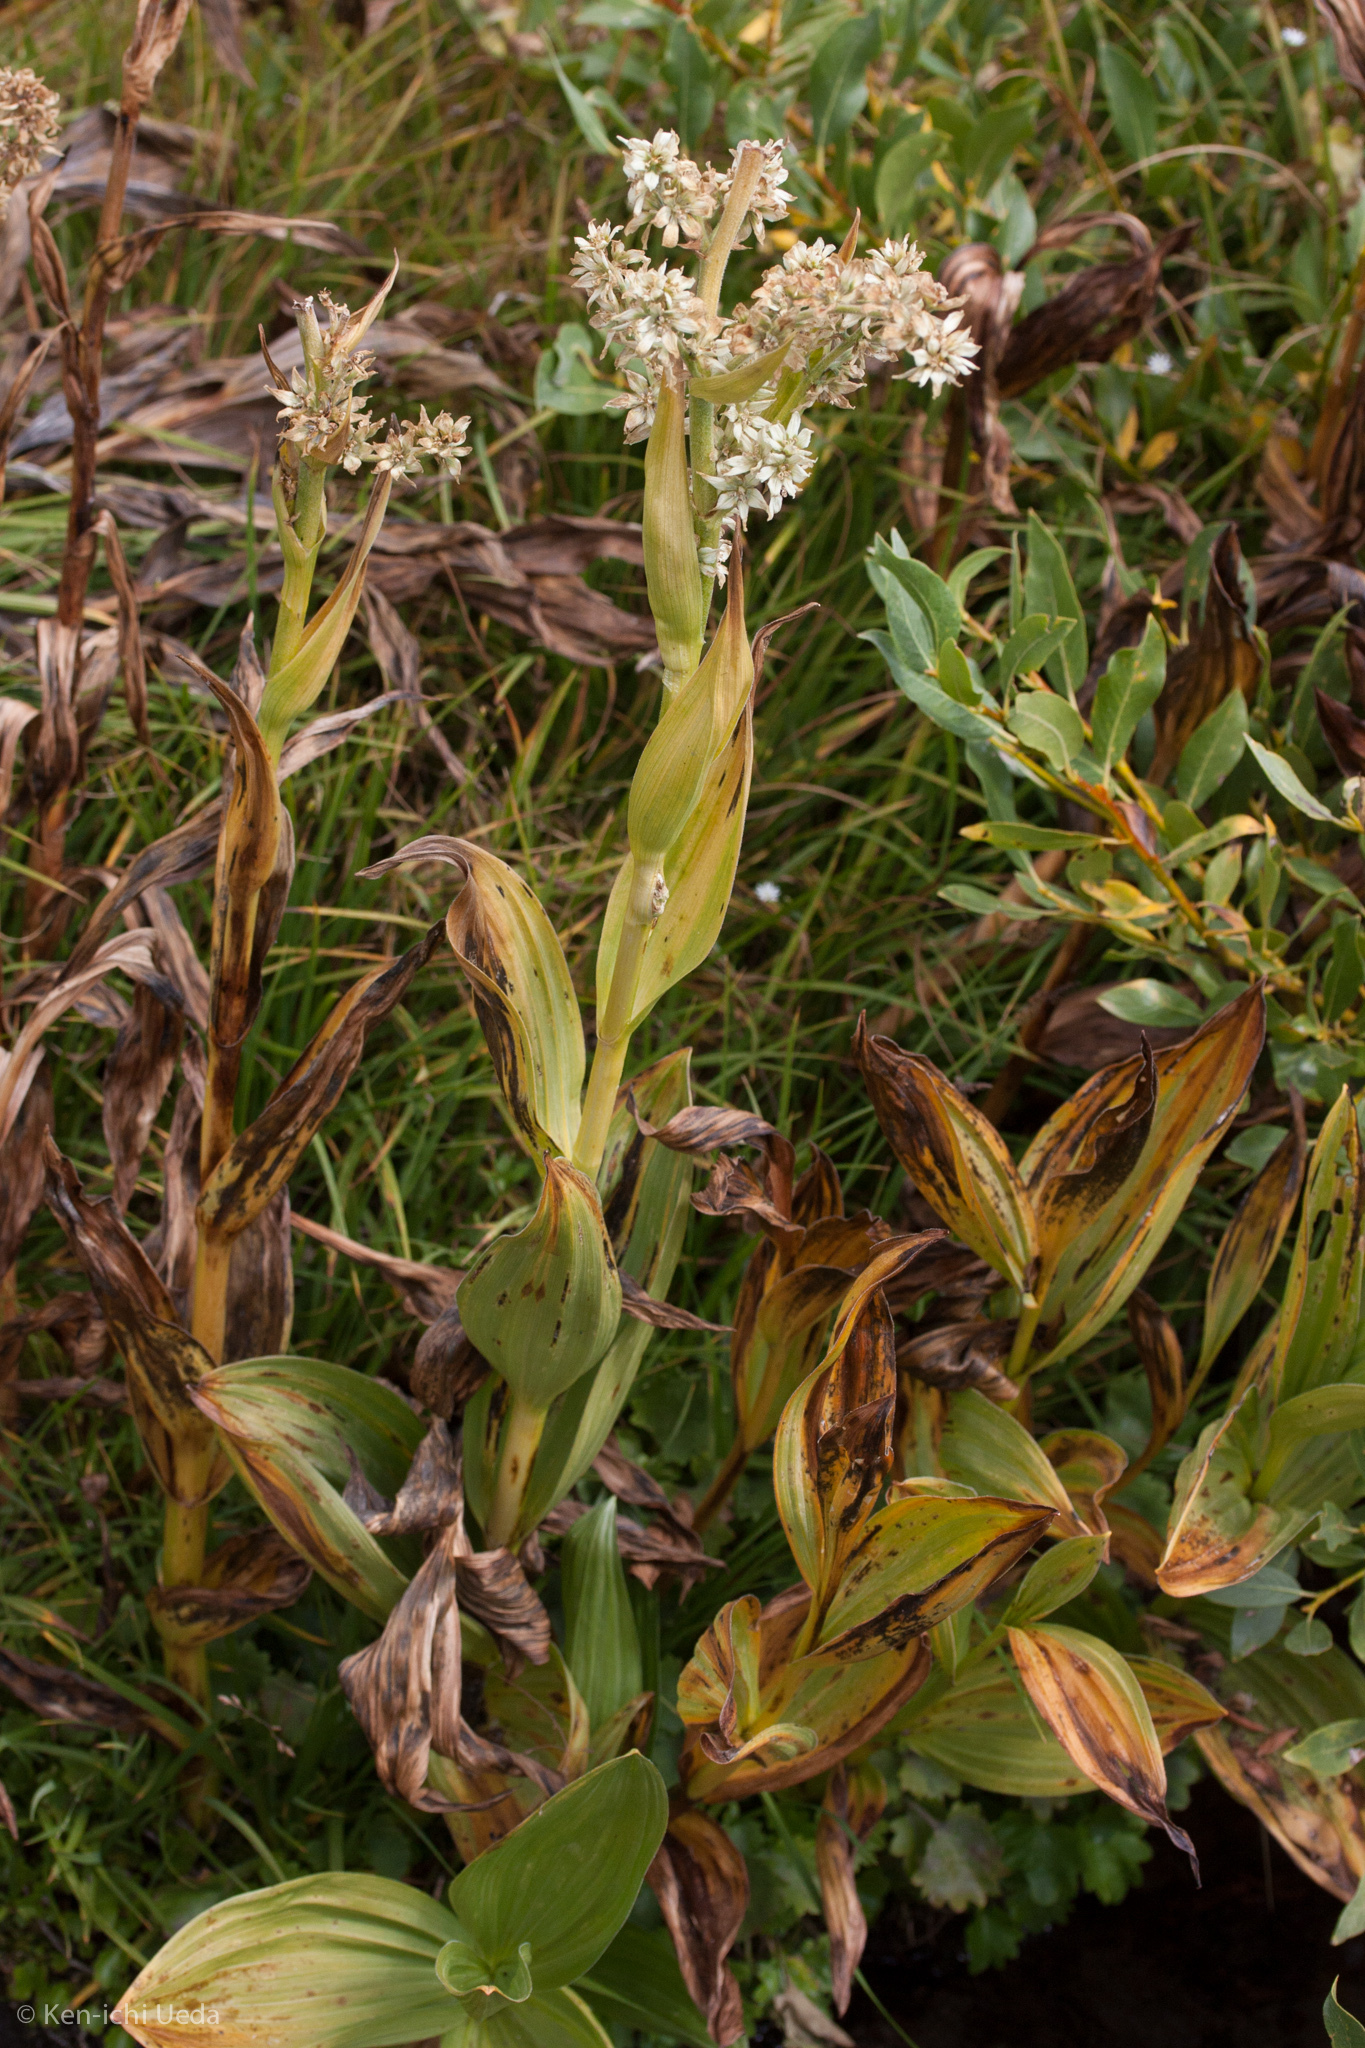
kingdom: Plantae
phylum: Tracheophyta
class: Liliopsida
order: Liliales
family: Melanthiaceae
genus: Veratrum
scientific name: Veratrum californicum
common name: California veratrum
